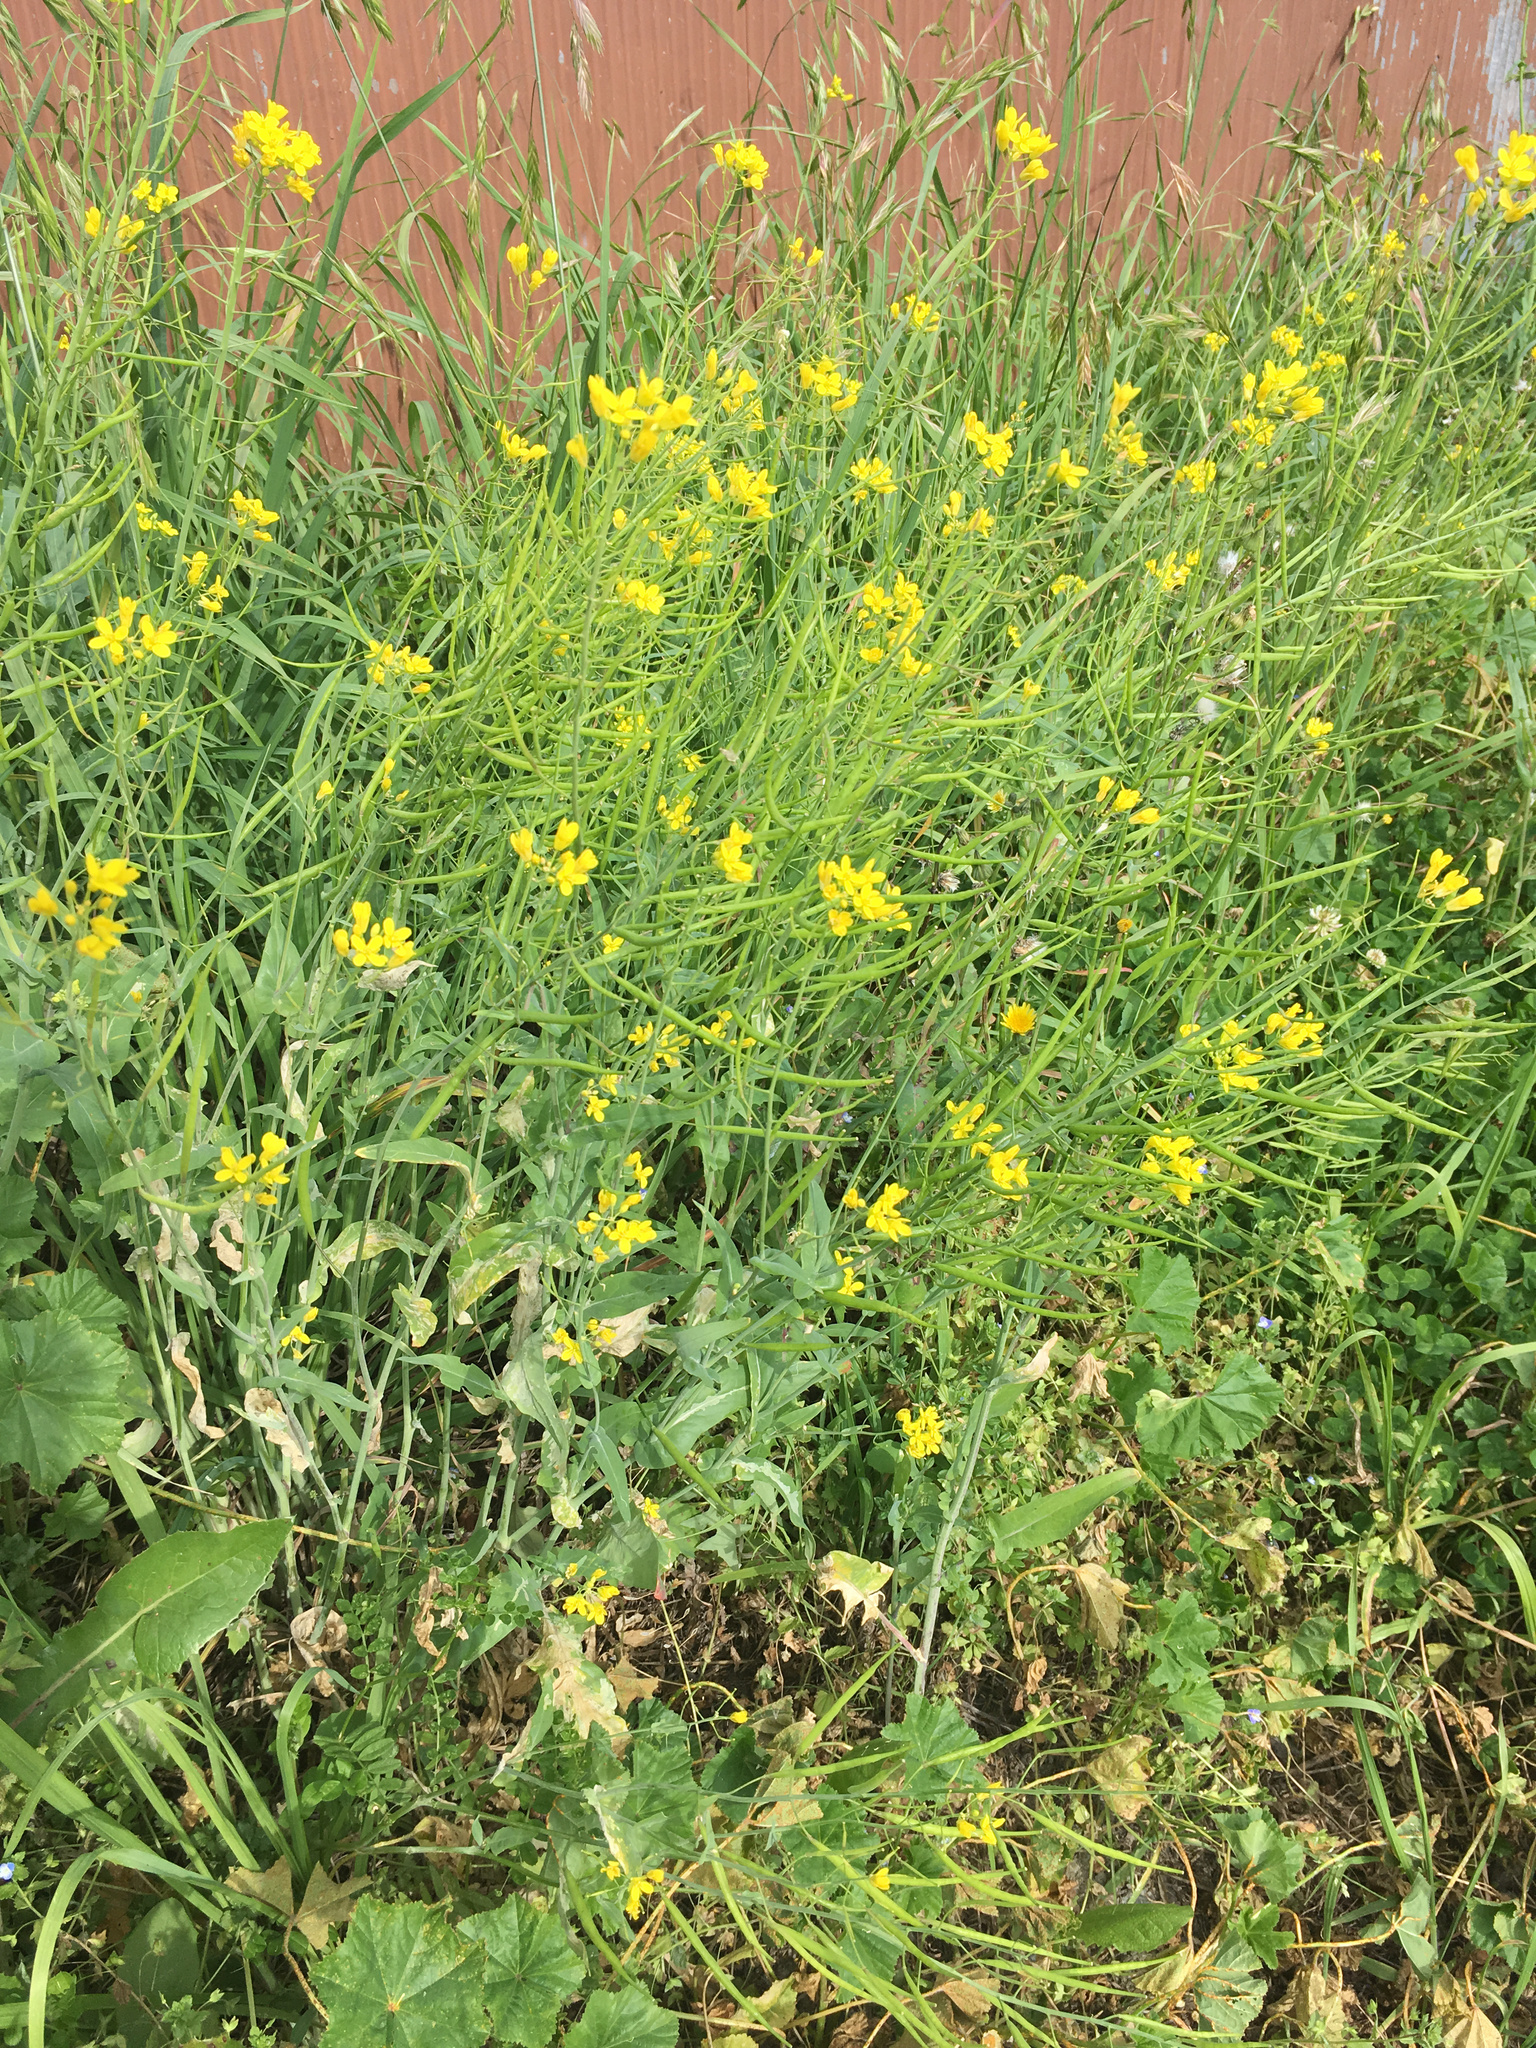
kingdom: Plantae
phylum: Tracheophyta
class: Magnoliopsida
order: Brassicales
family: Brassicaceae
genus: Brassica
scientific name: Brassica rapa
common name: Field mustard
